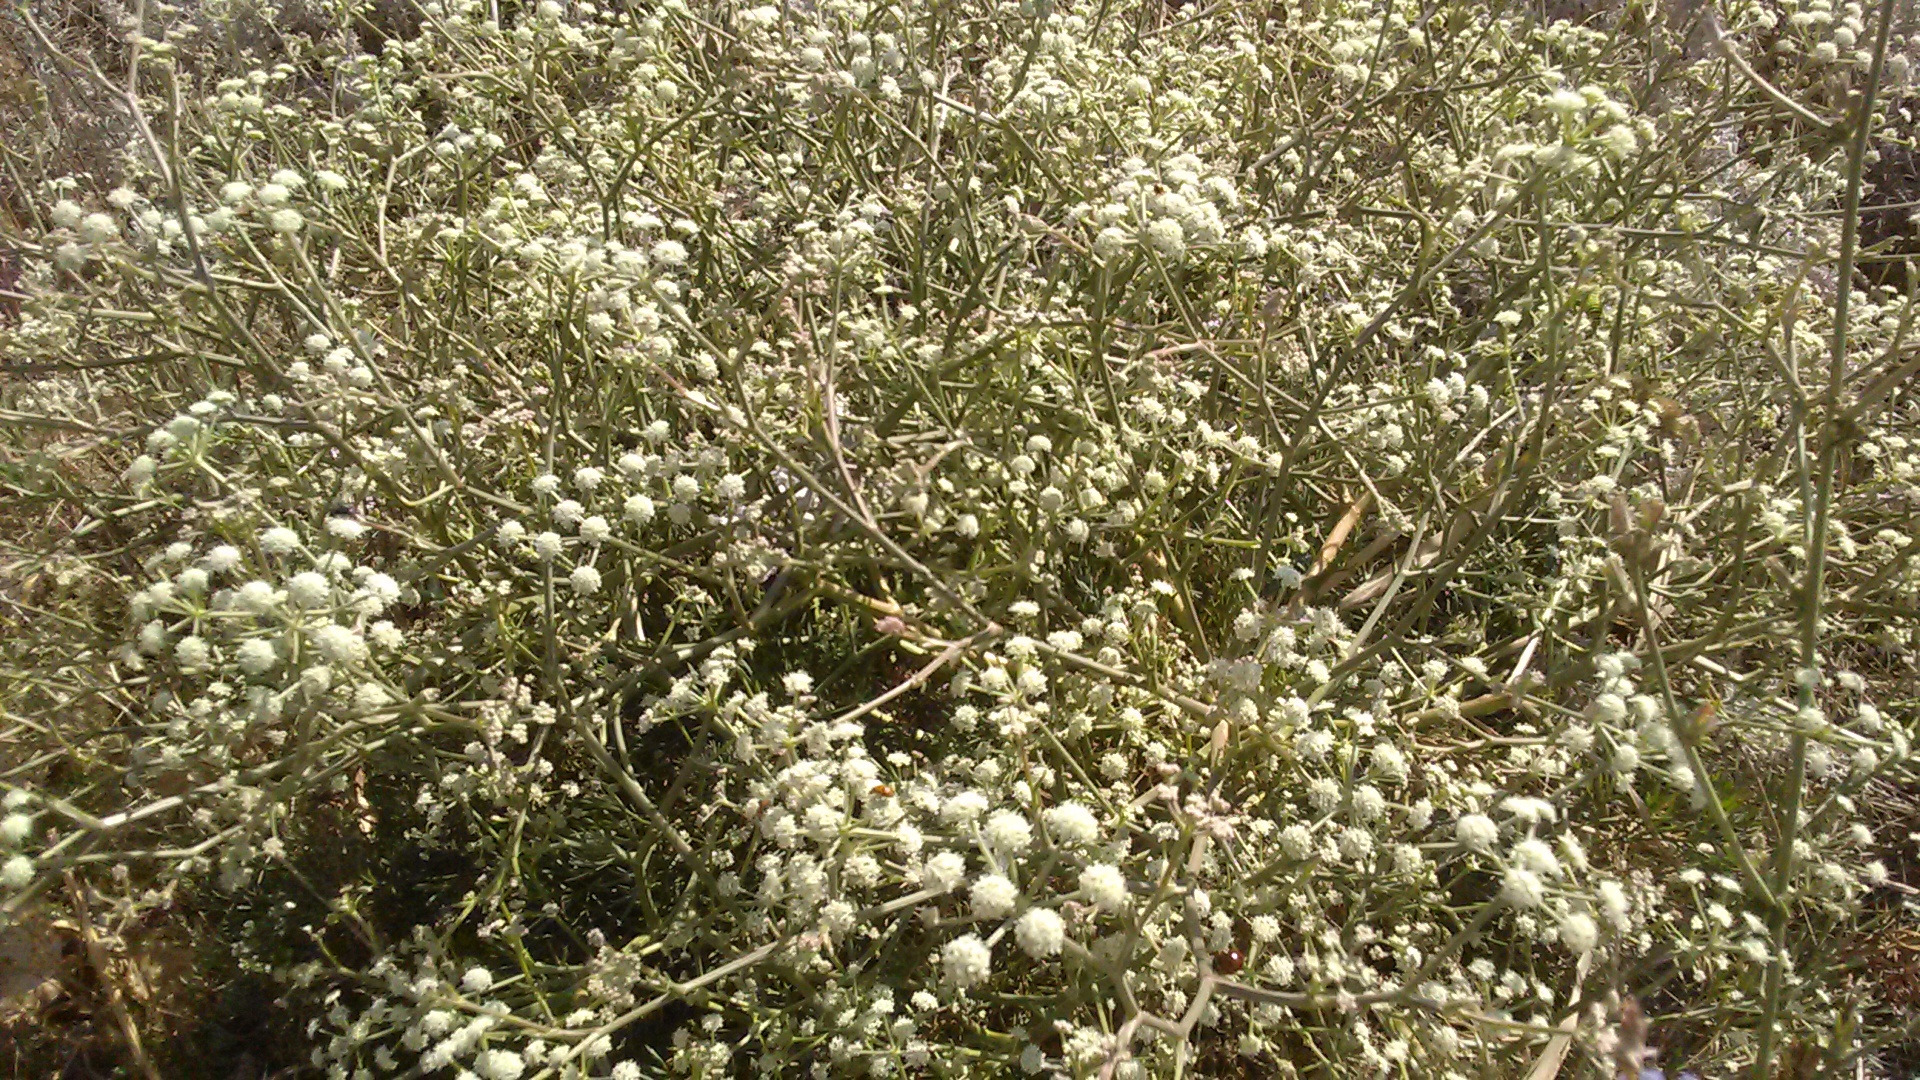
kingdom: Plantae
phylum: Tracheophyta
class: Magnoliopsida
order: Apiales
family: Apiaceae
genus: Seseli
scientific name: Seseli arenarium
